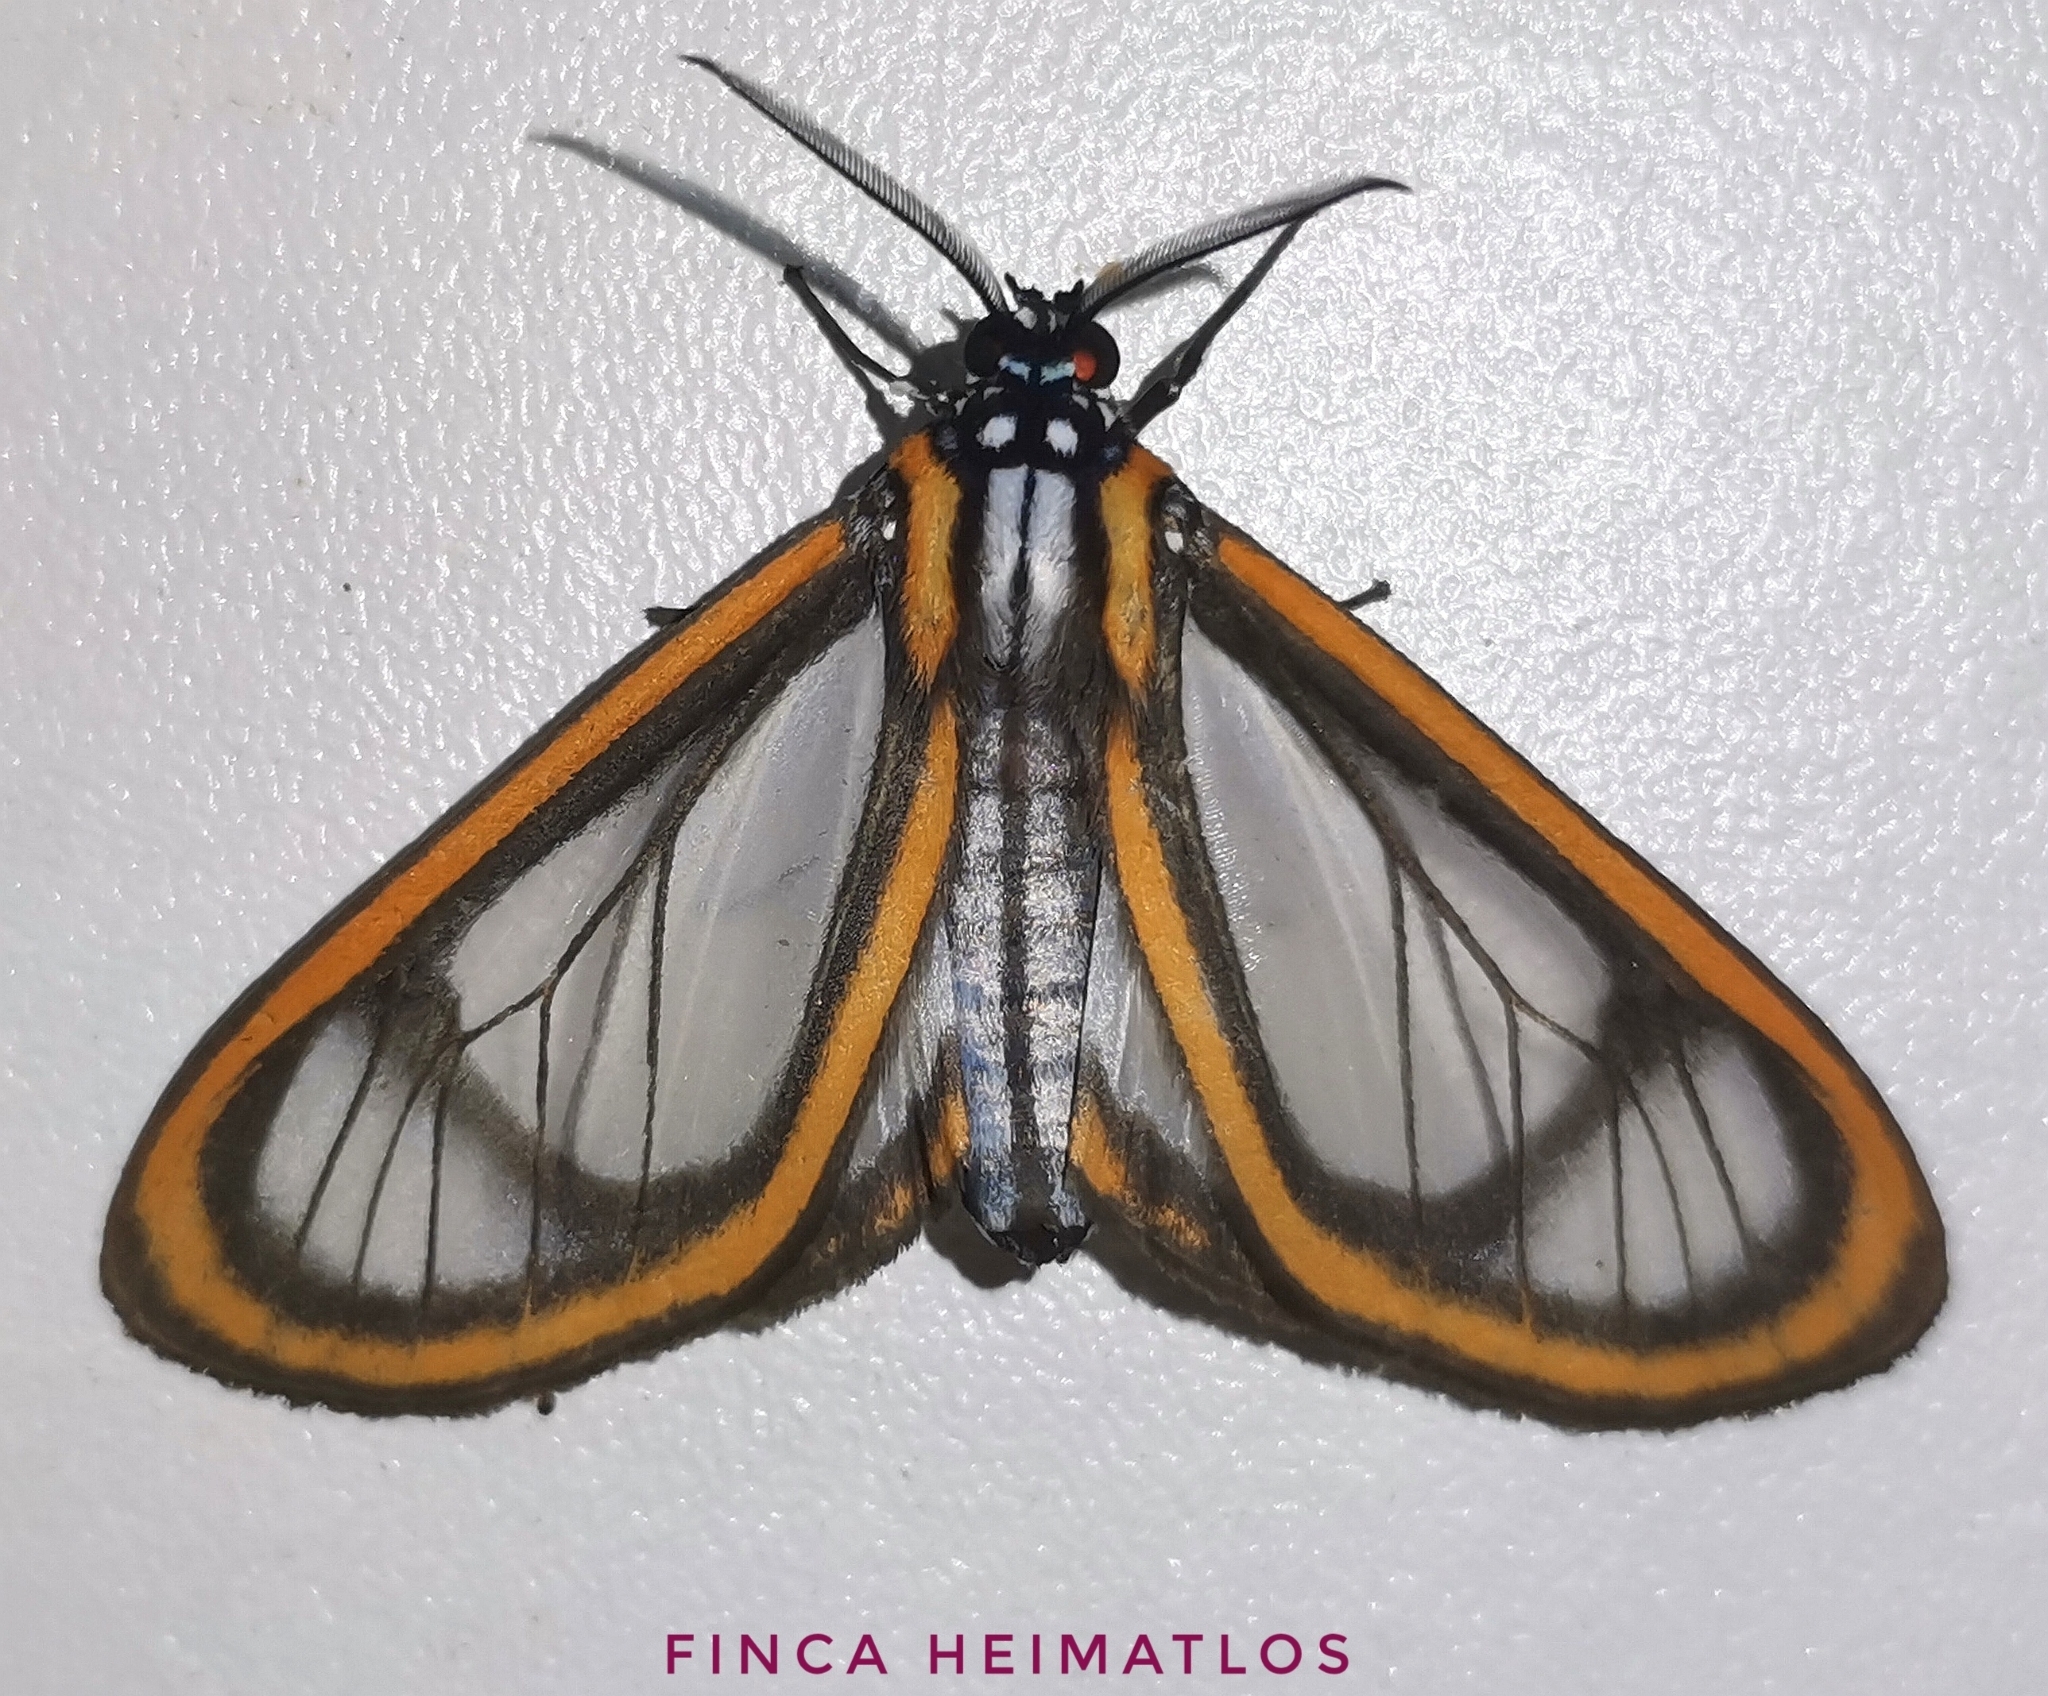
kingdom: Animalia
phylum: Arthropoda
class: Insecta
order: Lepidoptera
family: Erebidae
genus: Hyalurga
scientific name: Hyalurga discozellularis
